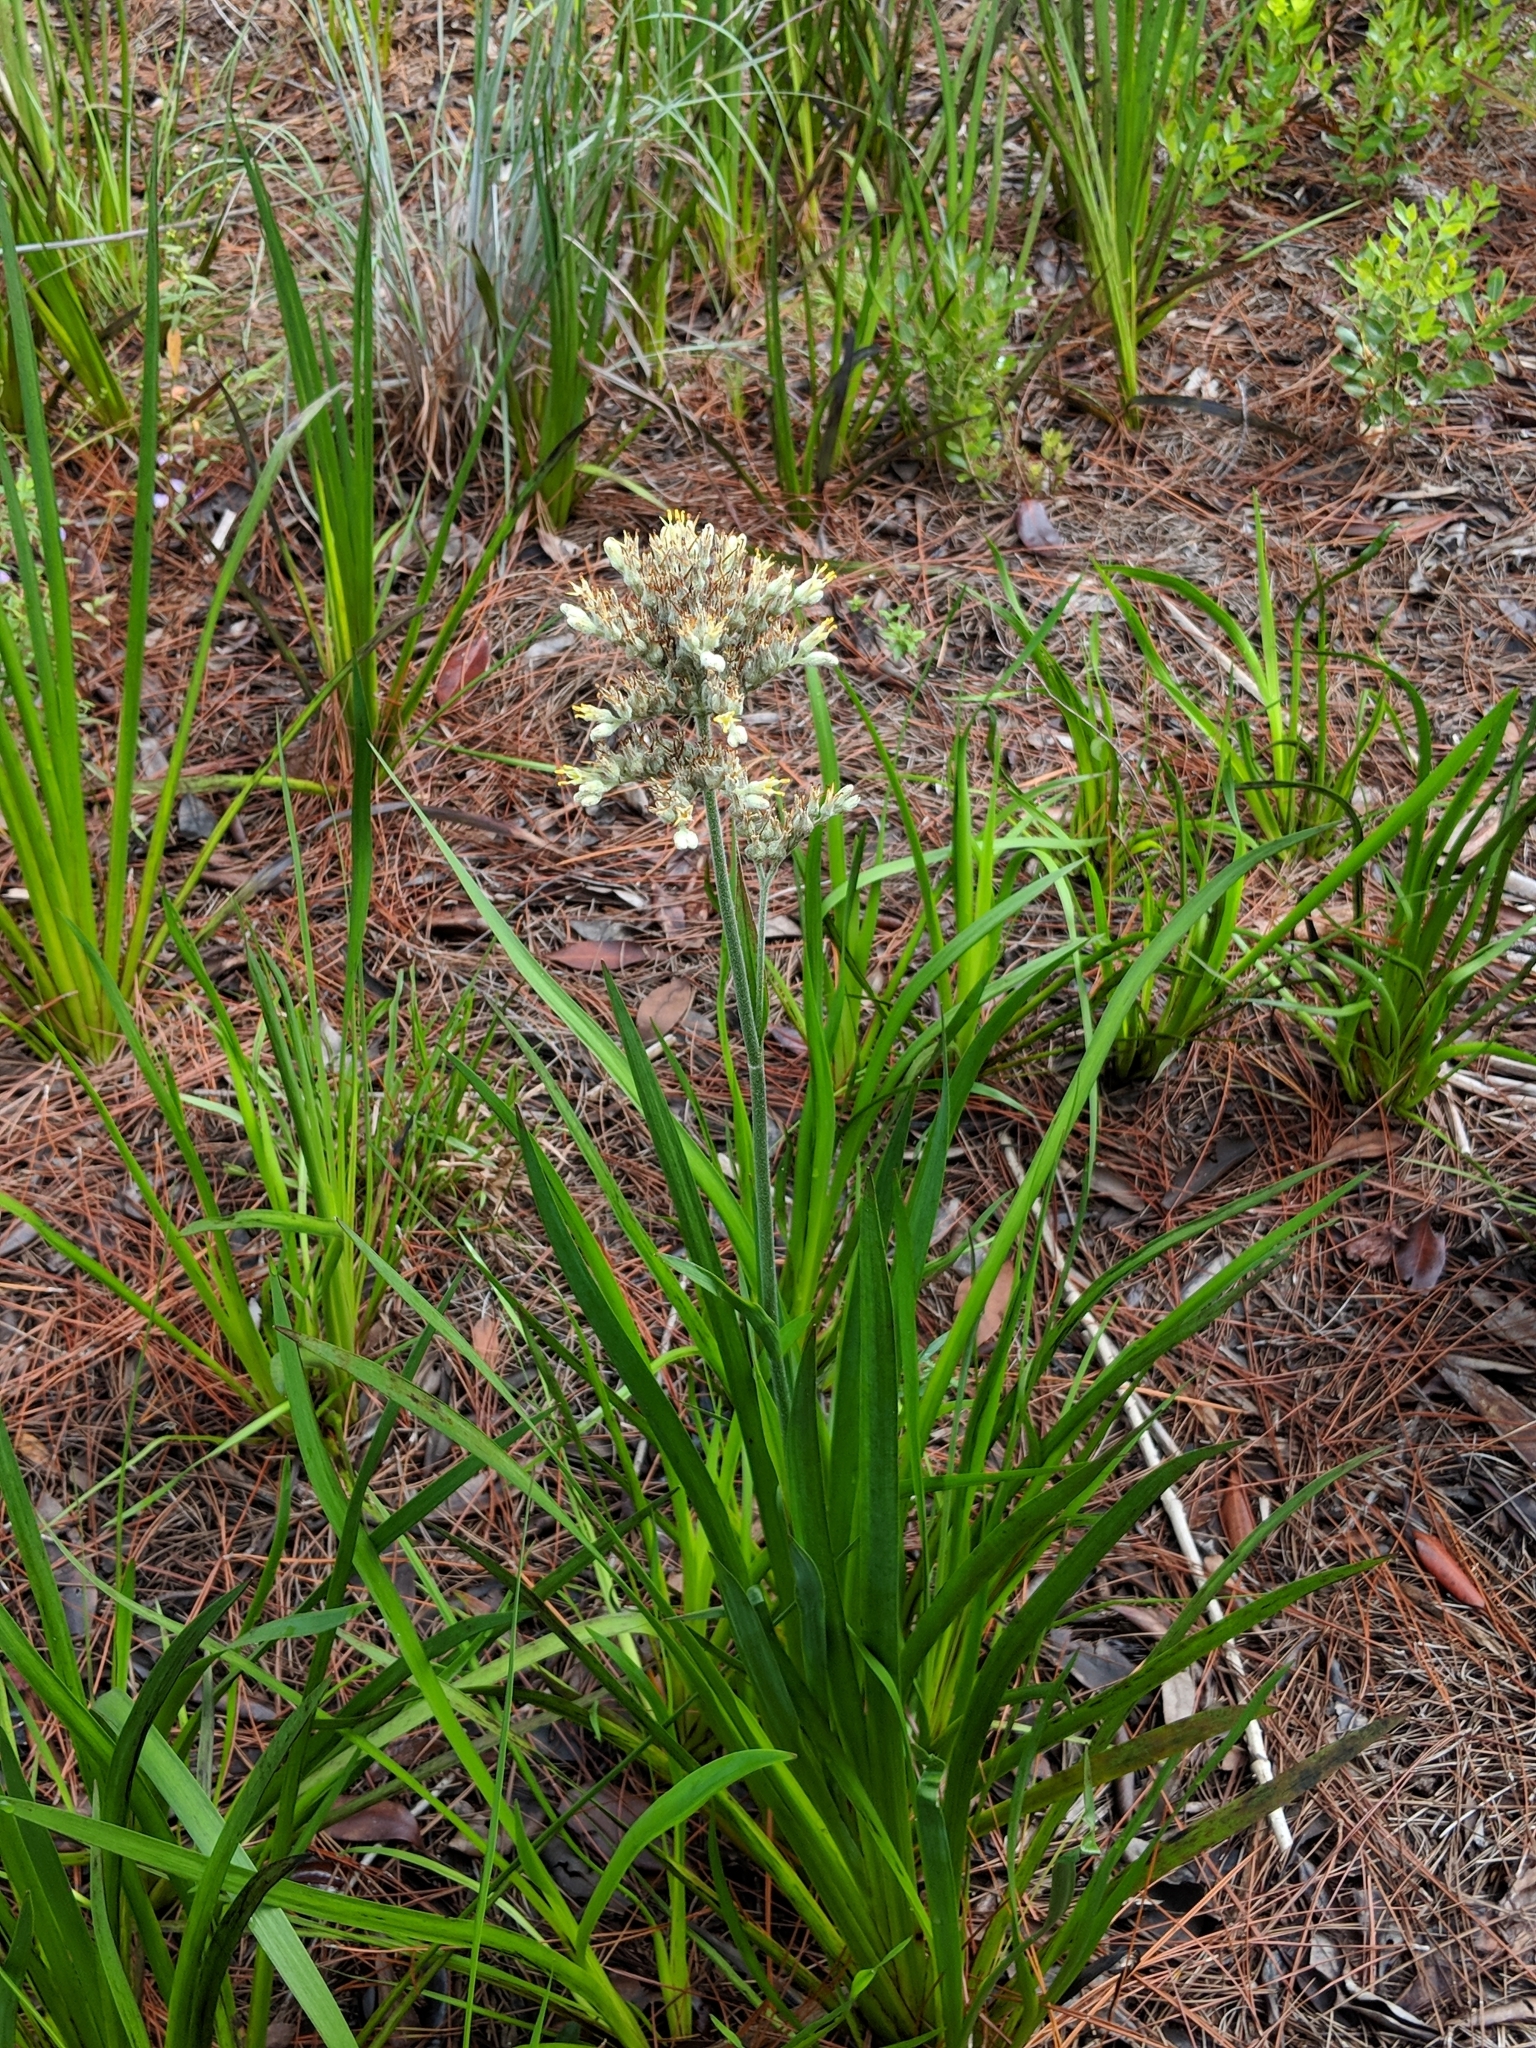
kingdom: Plantae
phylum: Tracheophyta
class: Liliopsida
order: Commelinales
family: Haemodoraceae
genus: Lachnanthes
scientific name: Lachnanthes caroliana
